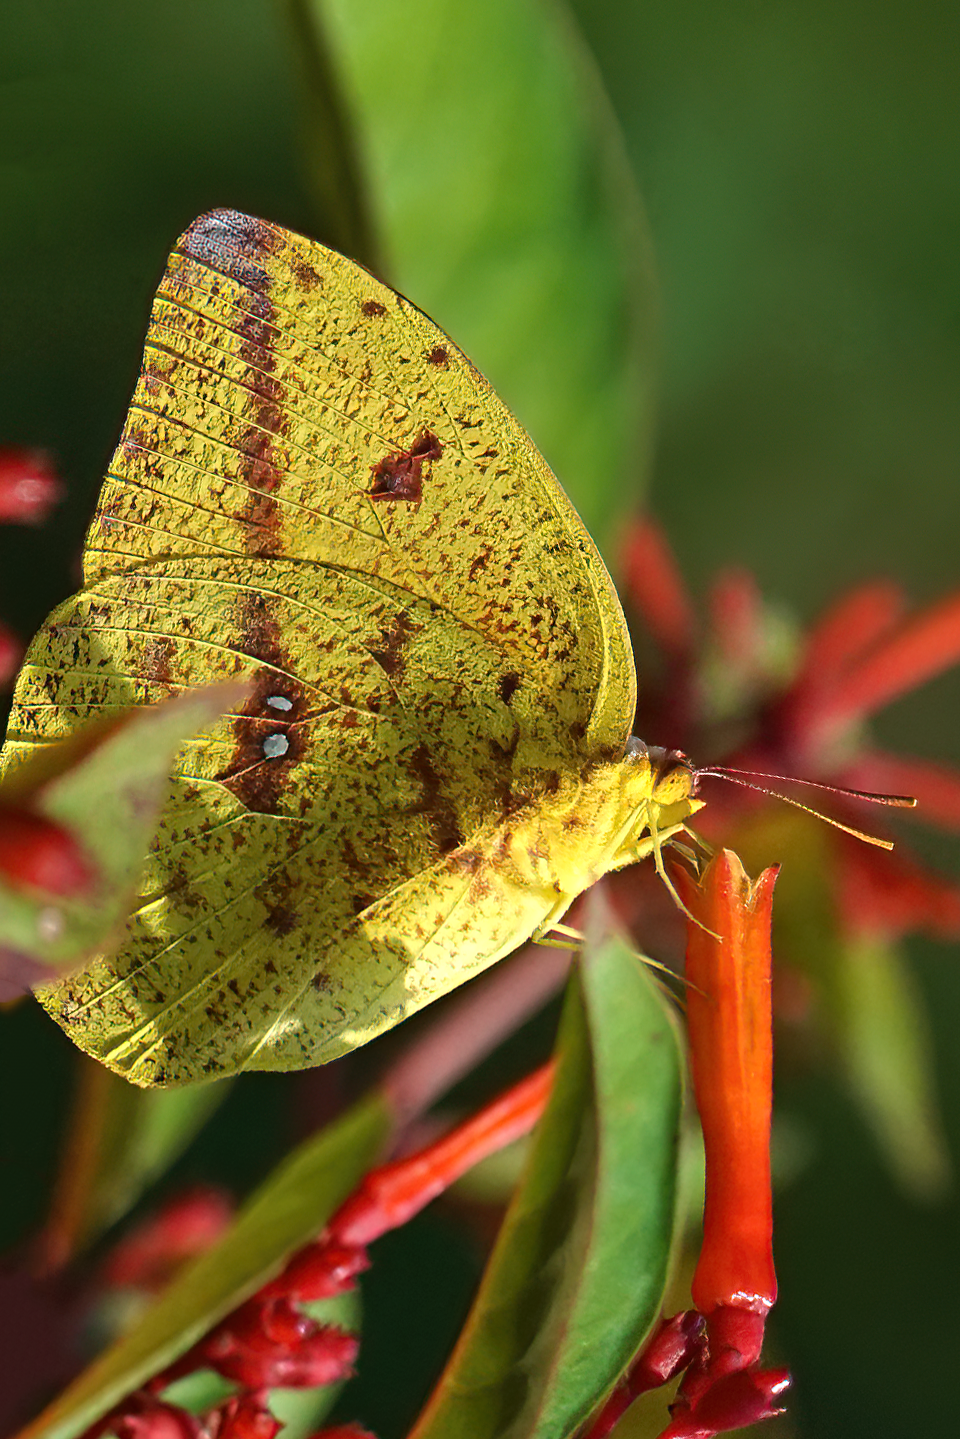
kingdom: Animalia
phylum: Arthropoda
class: Insecta
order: Lepidoptera
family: Pieridae
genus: Phoebis
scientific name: Phoebis agarithe
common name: Large orange sulphur
